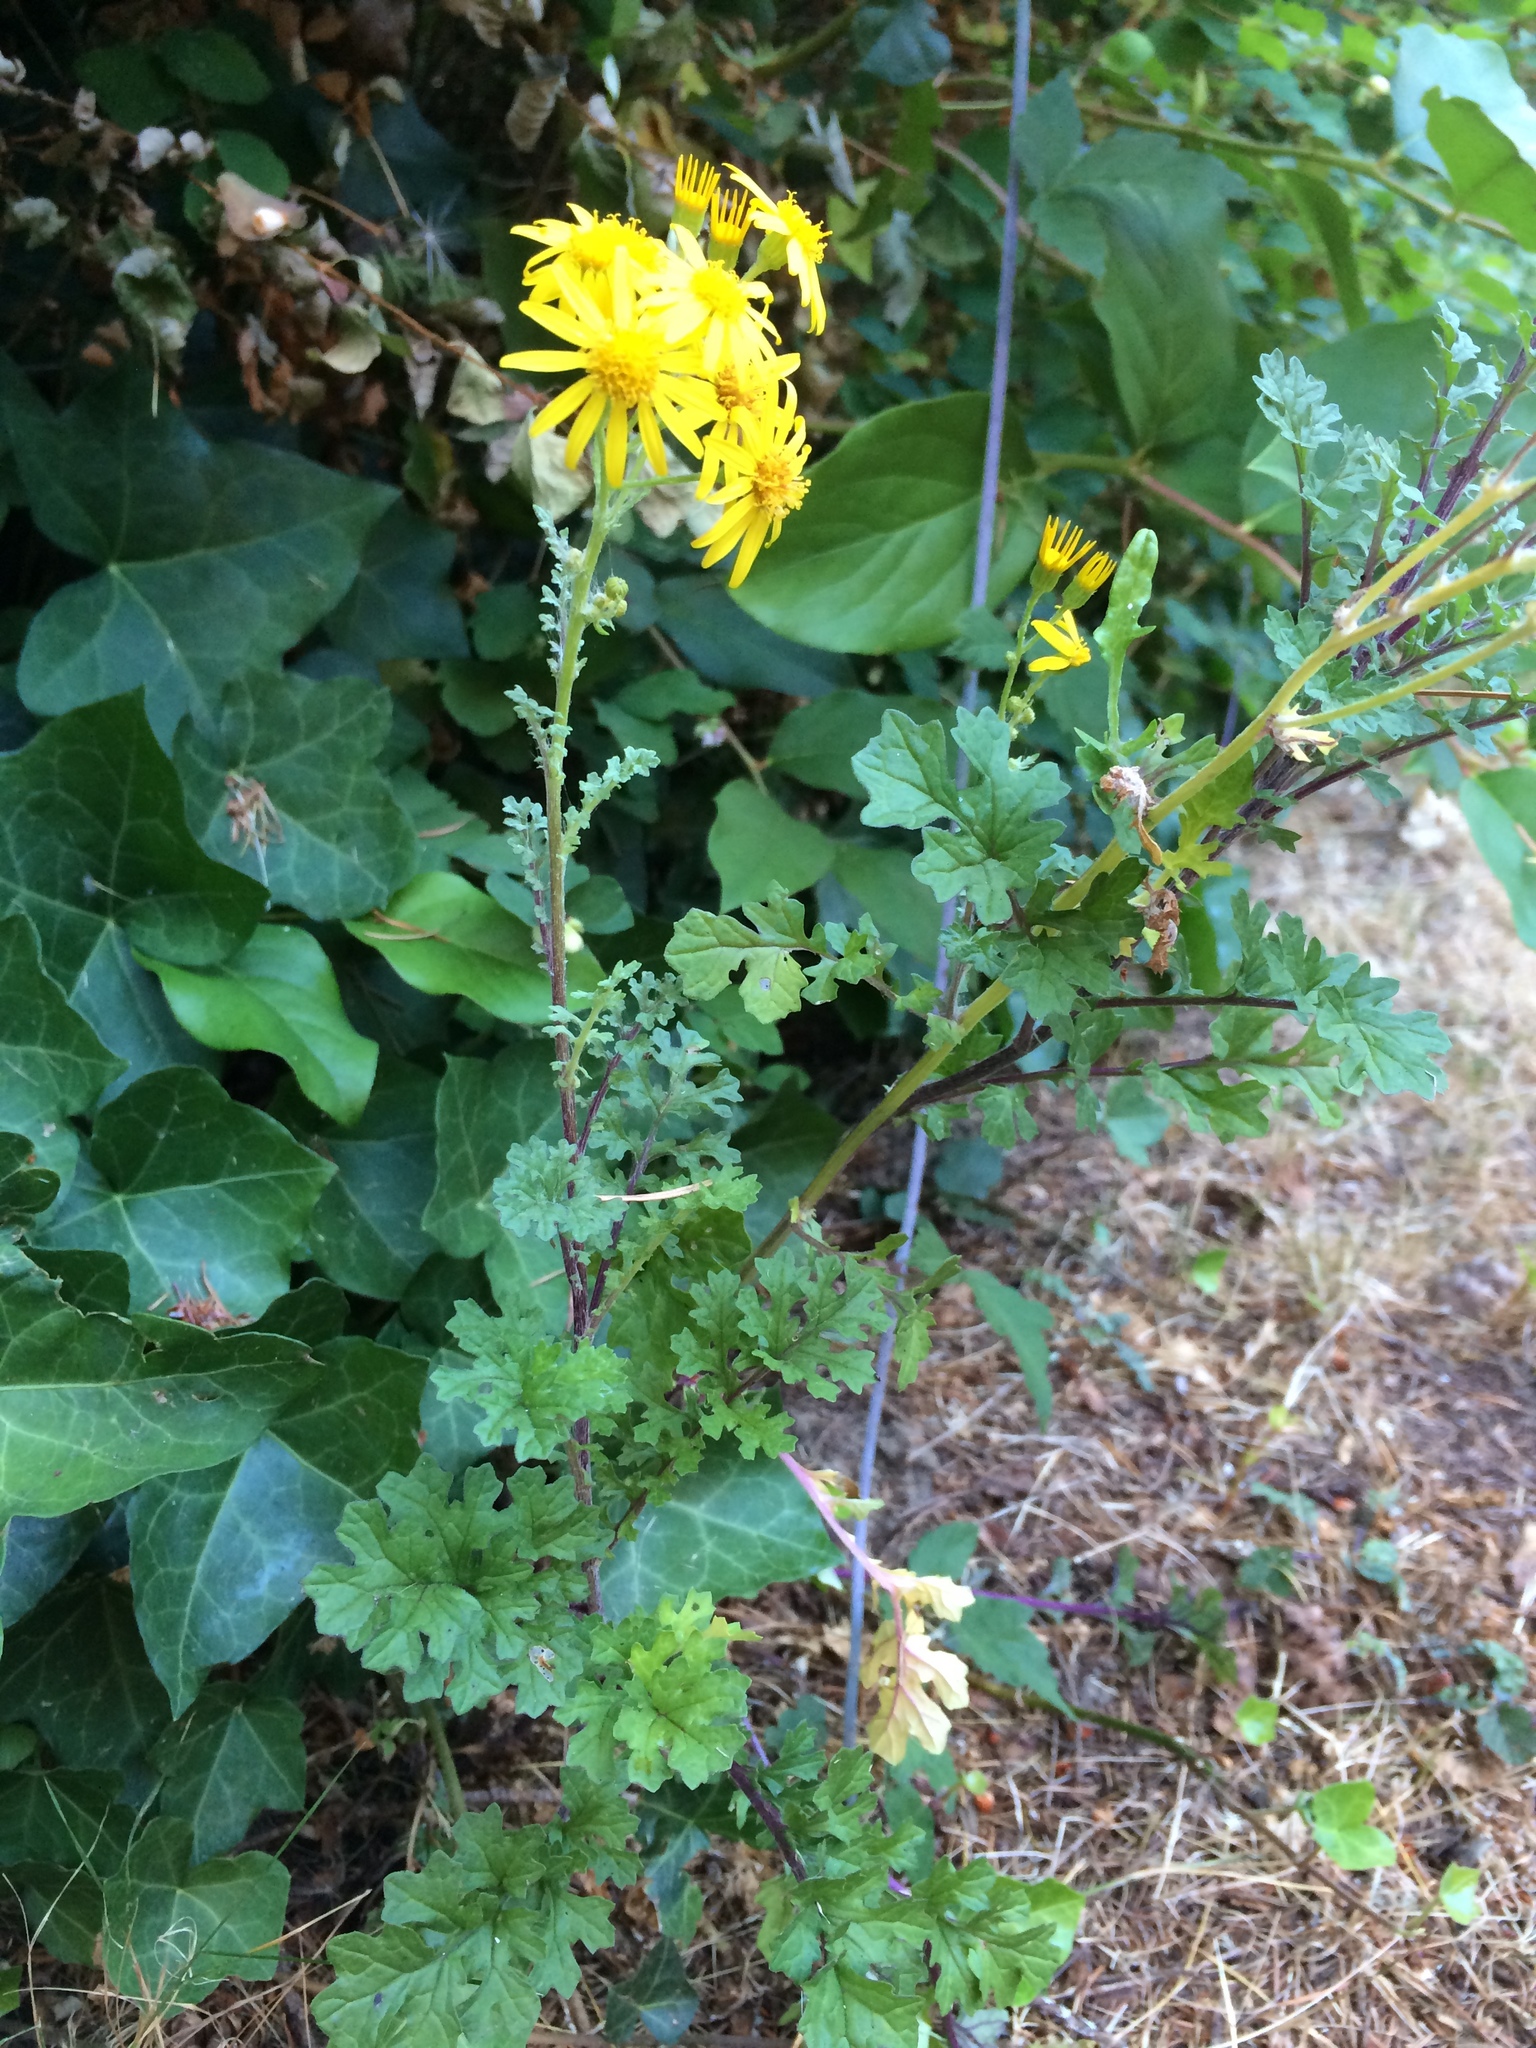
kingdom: Plantae
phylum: Tracheophyta
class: Magnoliopsida
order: Asterales
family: Asteraceae
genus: Jacobaea
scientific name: Jacobaea vulgaris
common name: Stinking willie
